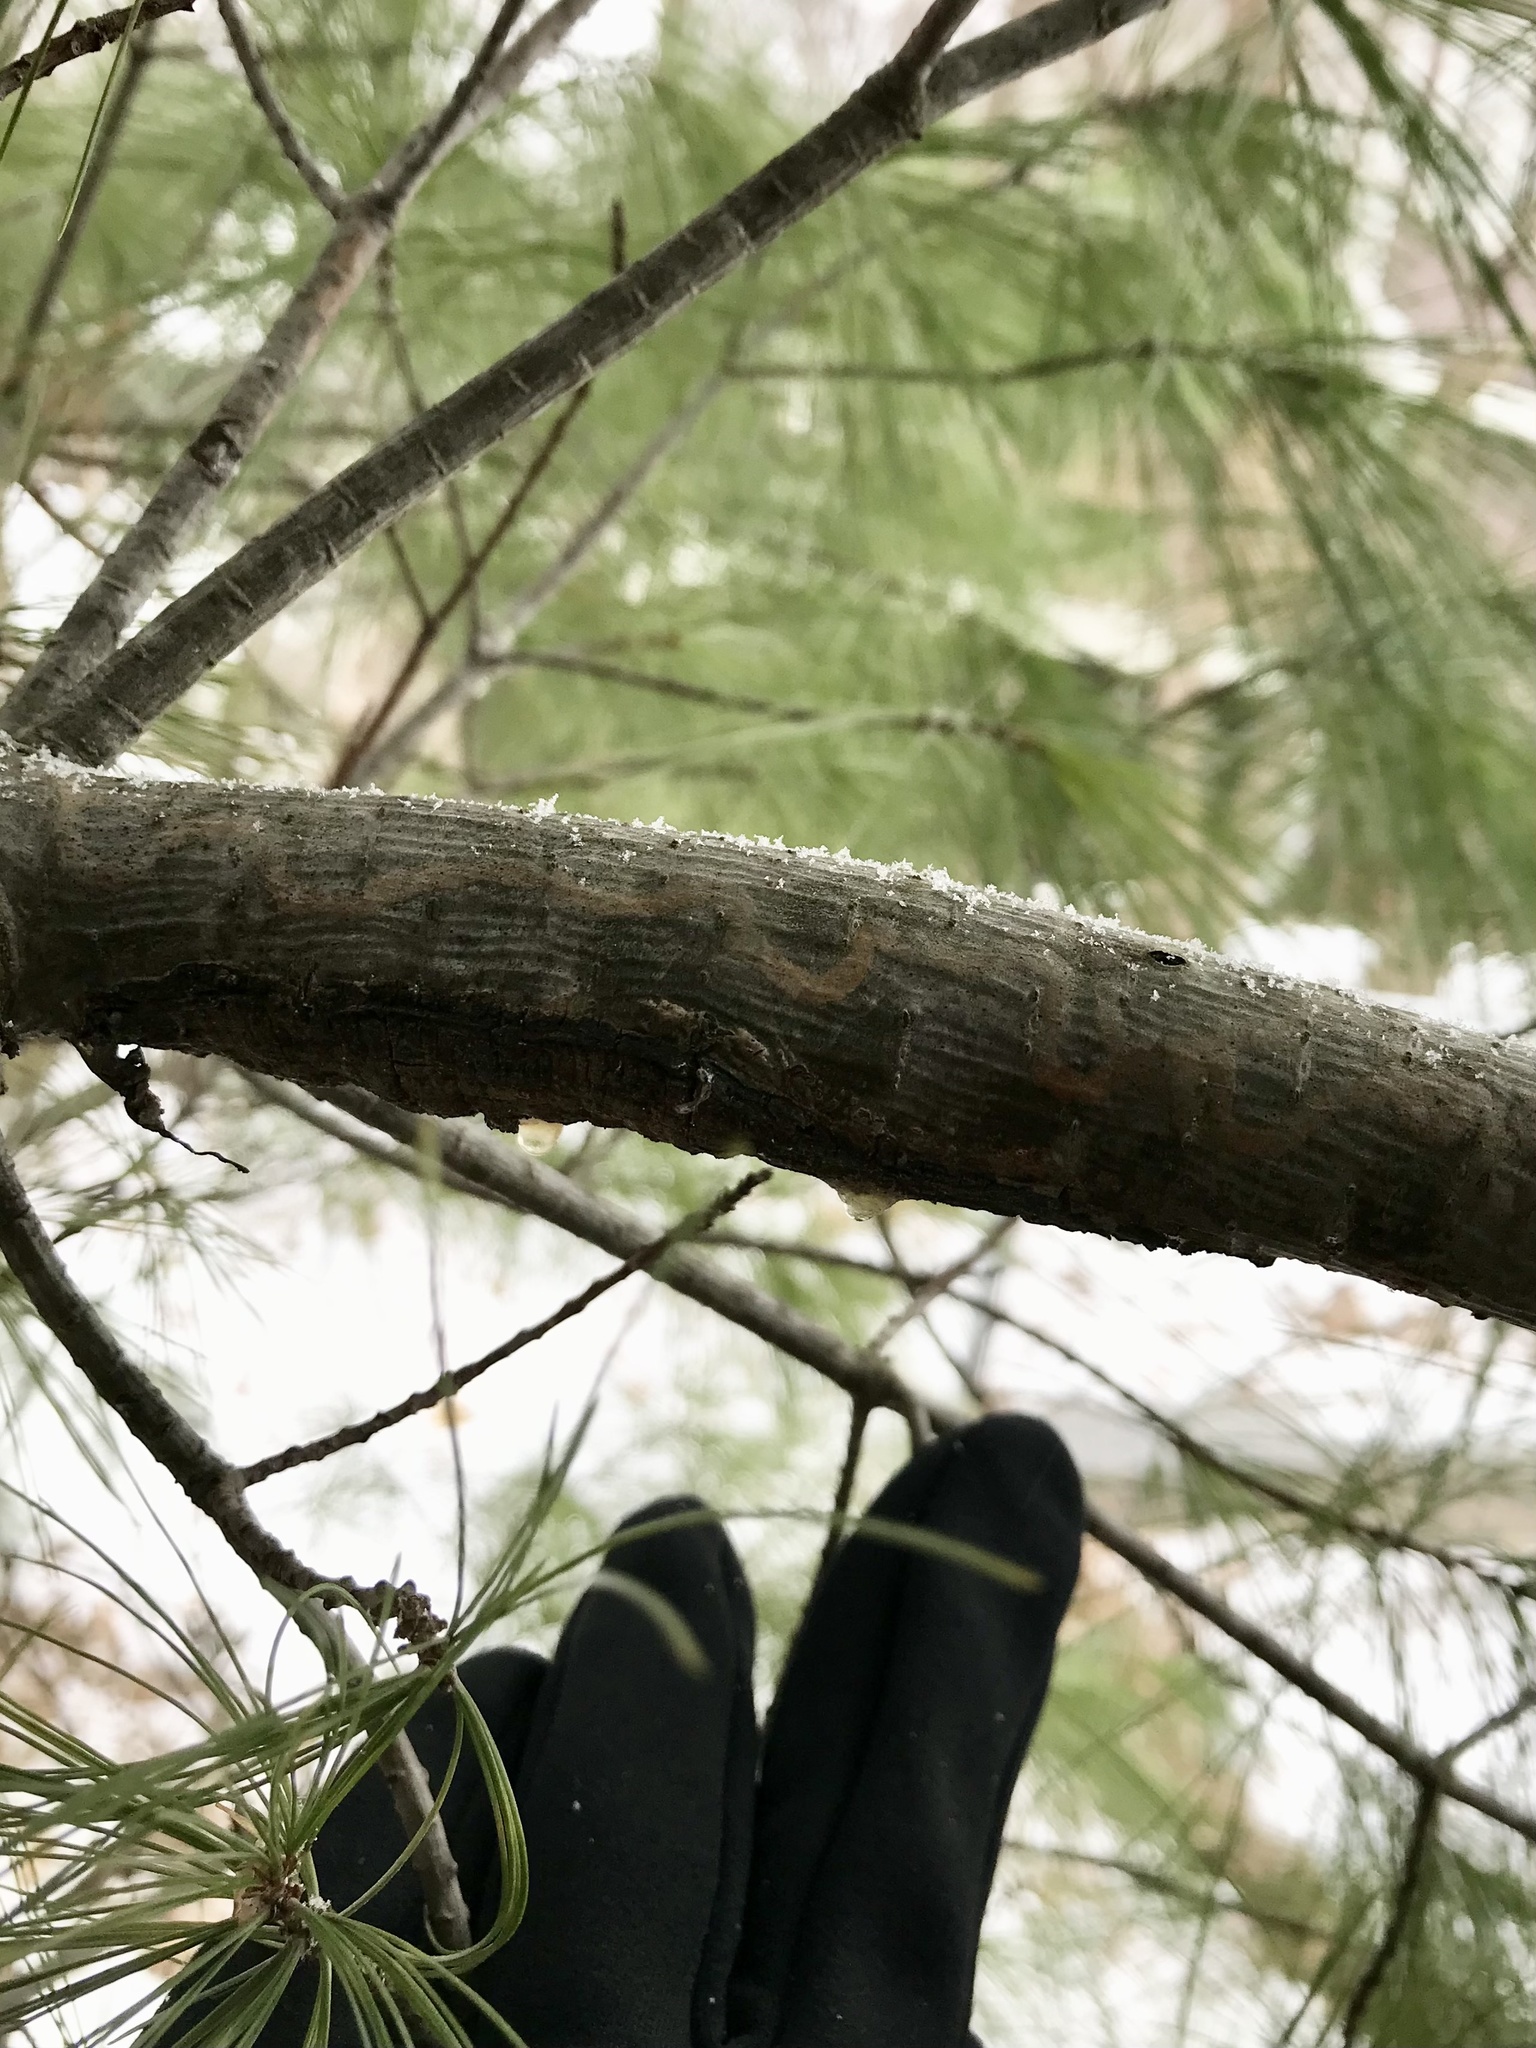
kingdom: Animalia
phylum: Arthropoda
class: Insecta
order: Lepidoptera
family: Gracillariidae
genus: Marmara
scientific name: Marmara fasciella
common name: White pine barkminer moth
